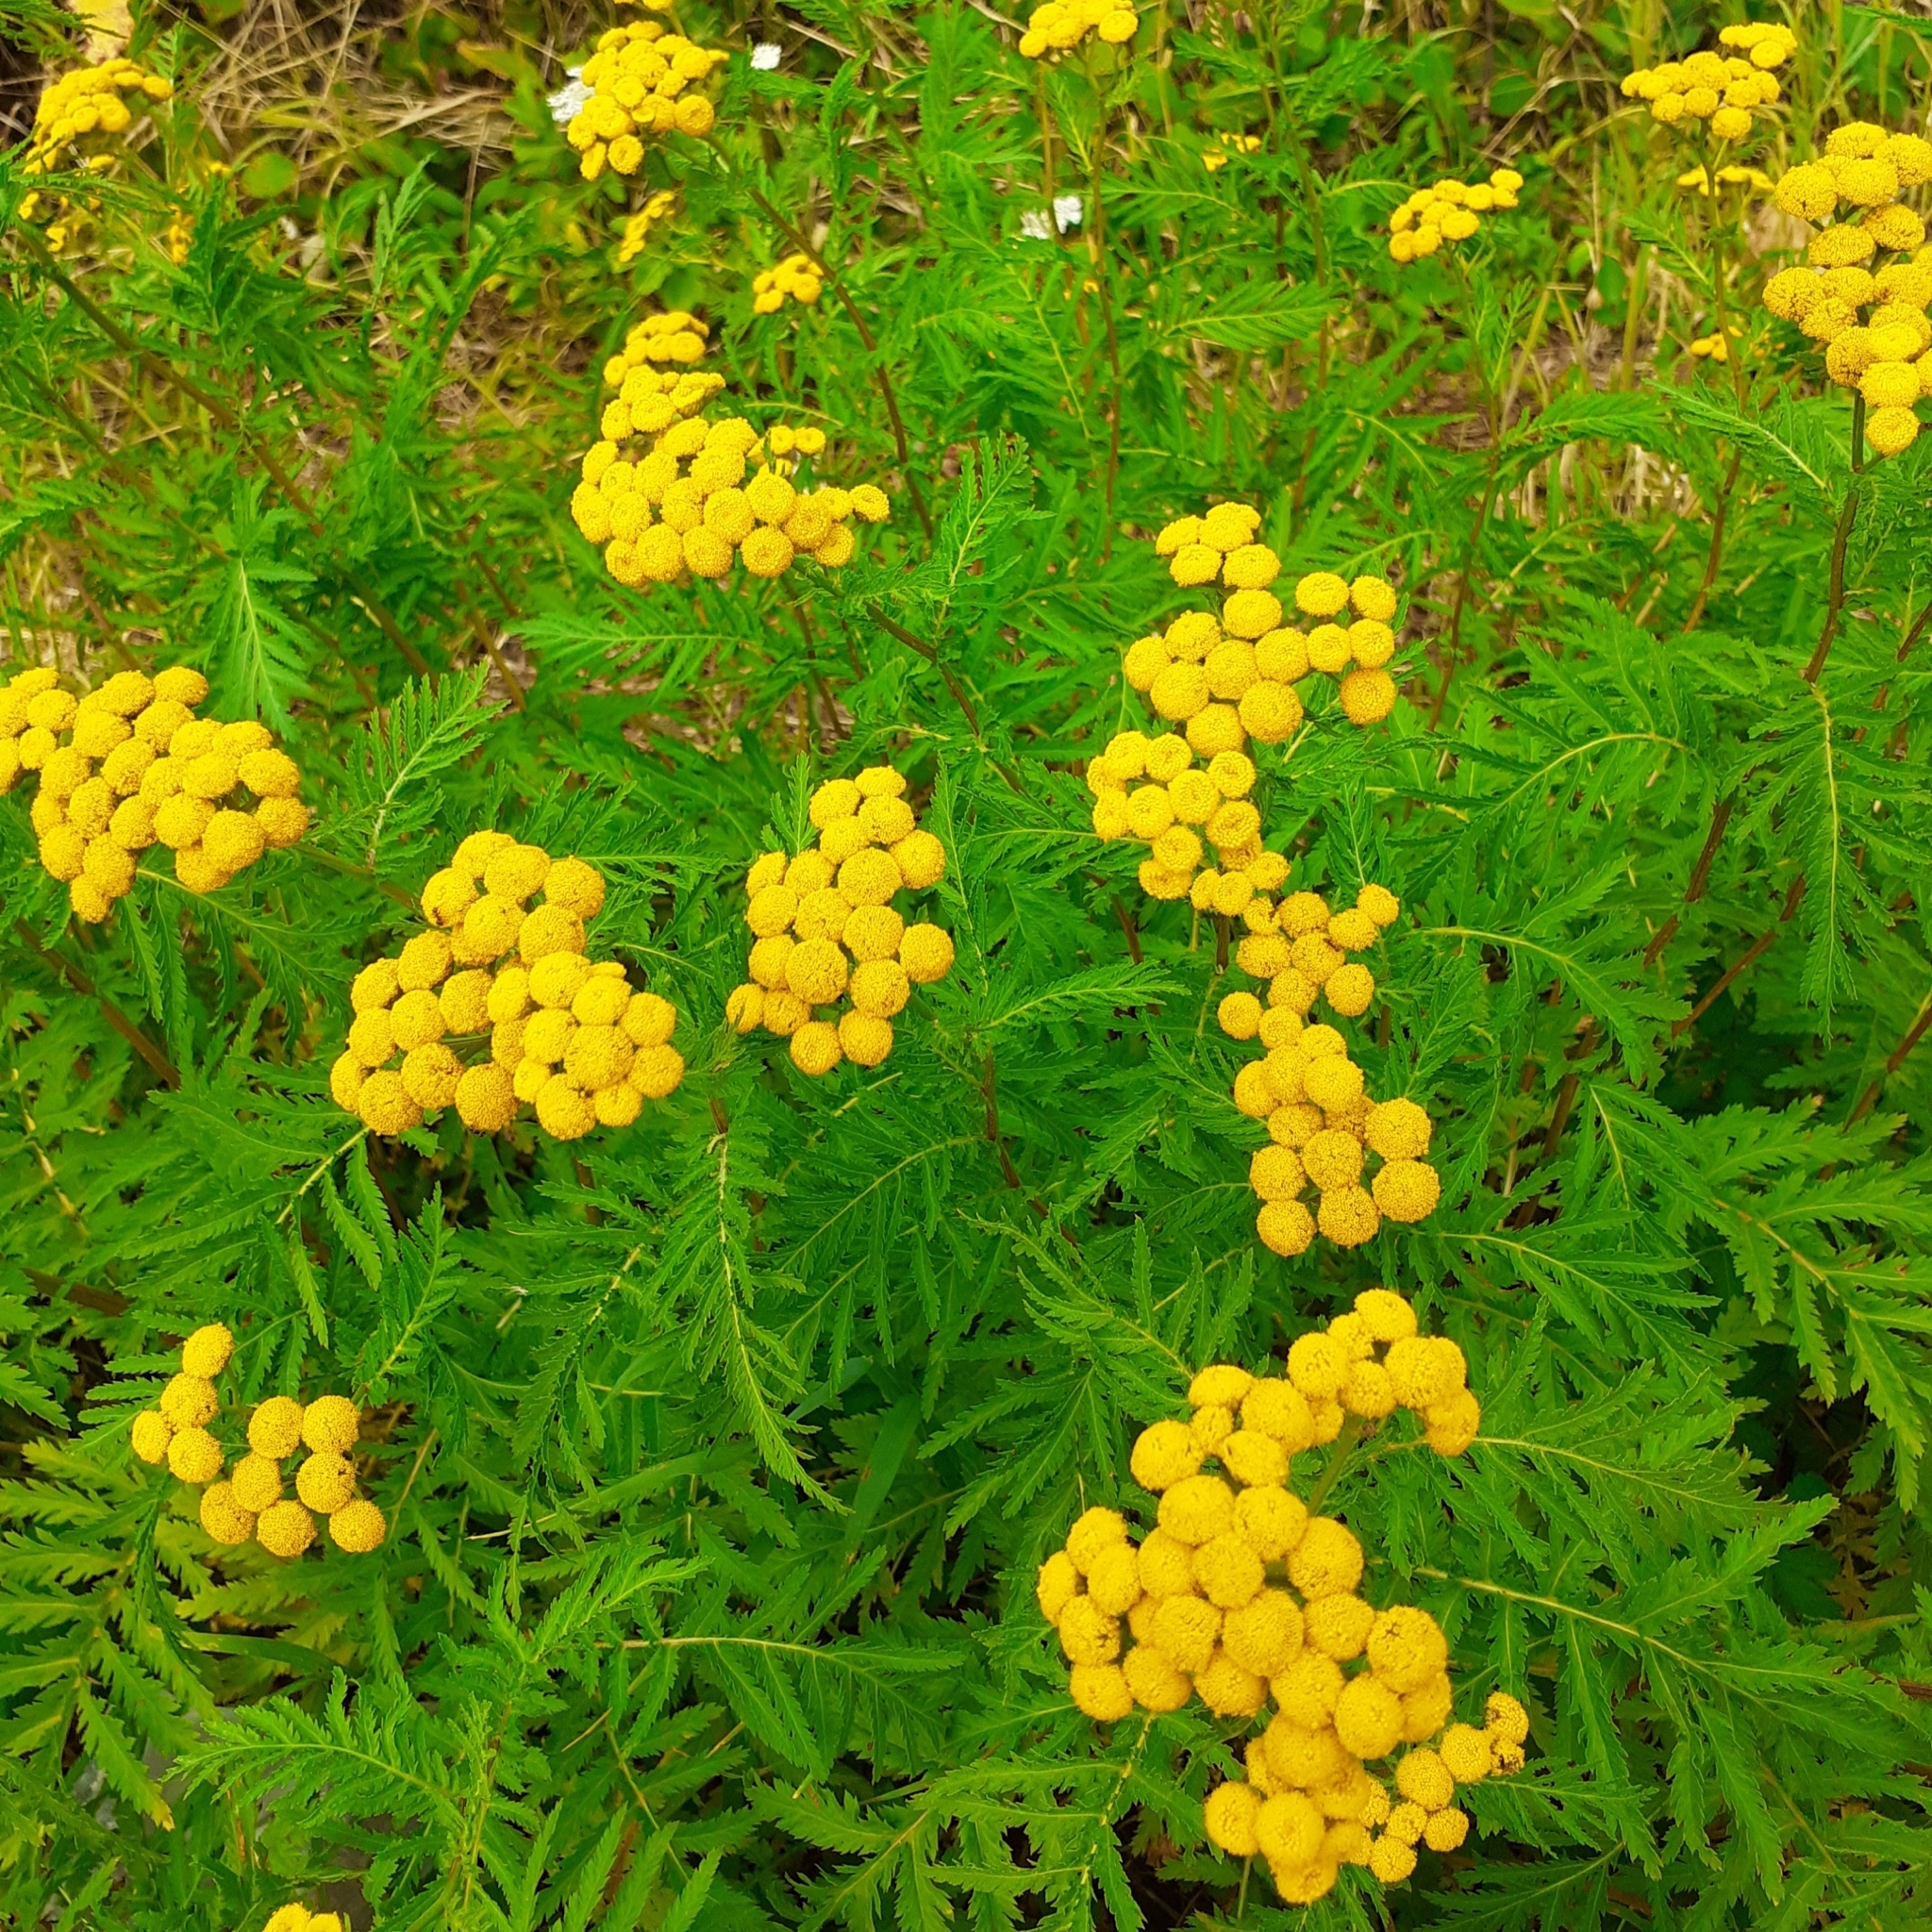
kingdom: Plantae
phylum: Tracheophyta
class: Magnoliopsida
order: Asterales
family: Asteraceae
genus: Tanacetum
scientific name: Tanacetum vulgare
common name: Common tansy
